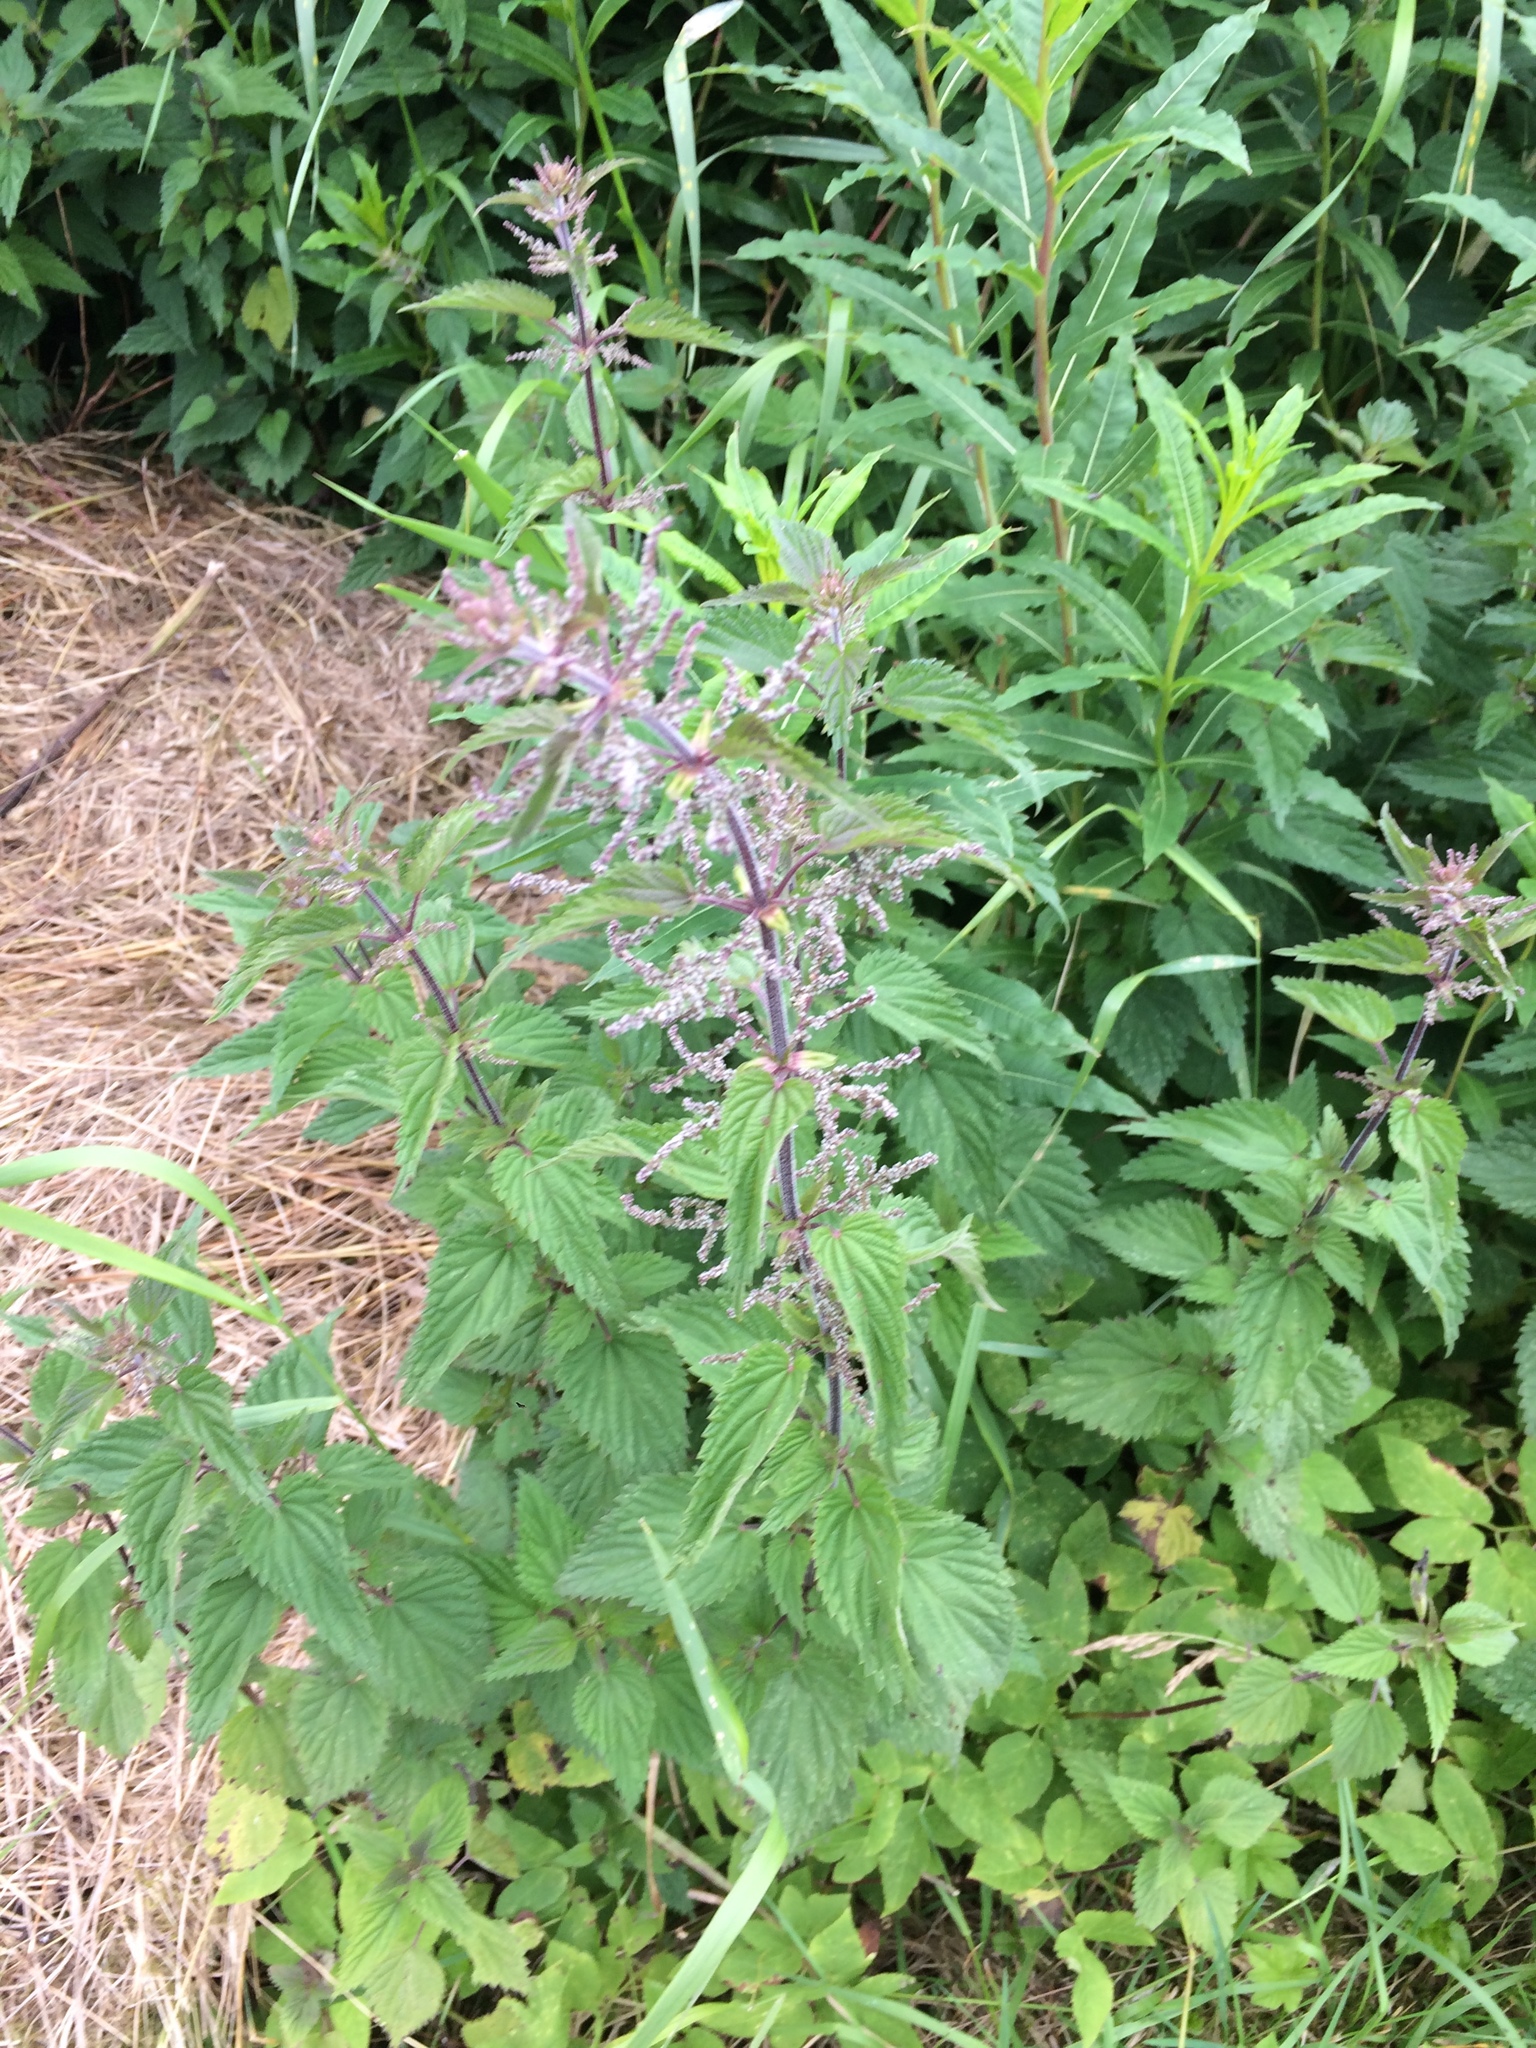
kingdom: Plantae
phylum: Tracheophyta
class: Magnoliopsida
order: Rosales
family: Urticaceae
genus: Urtica
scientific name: Urtica dioica
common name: Common nettle
